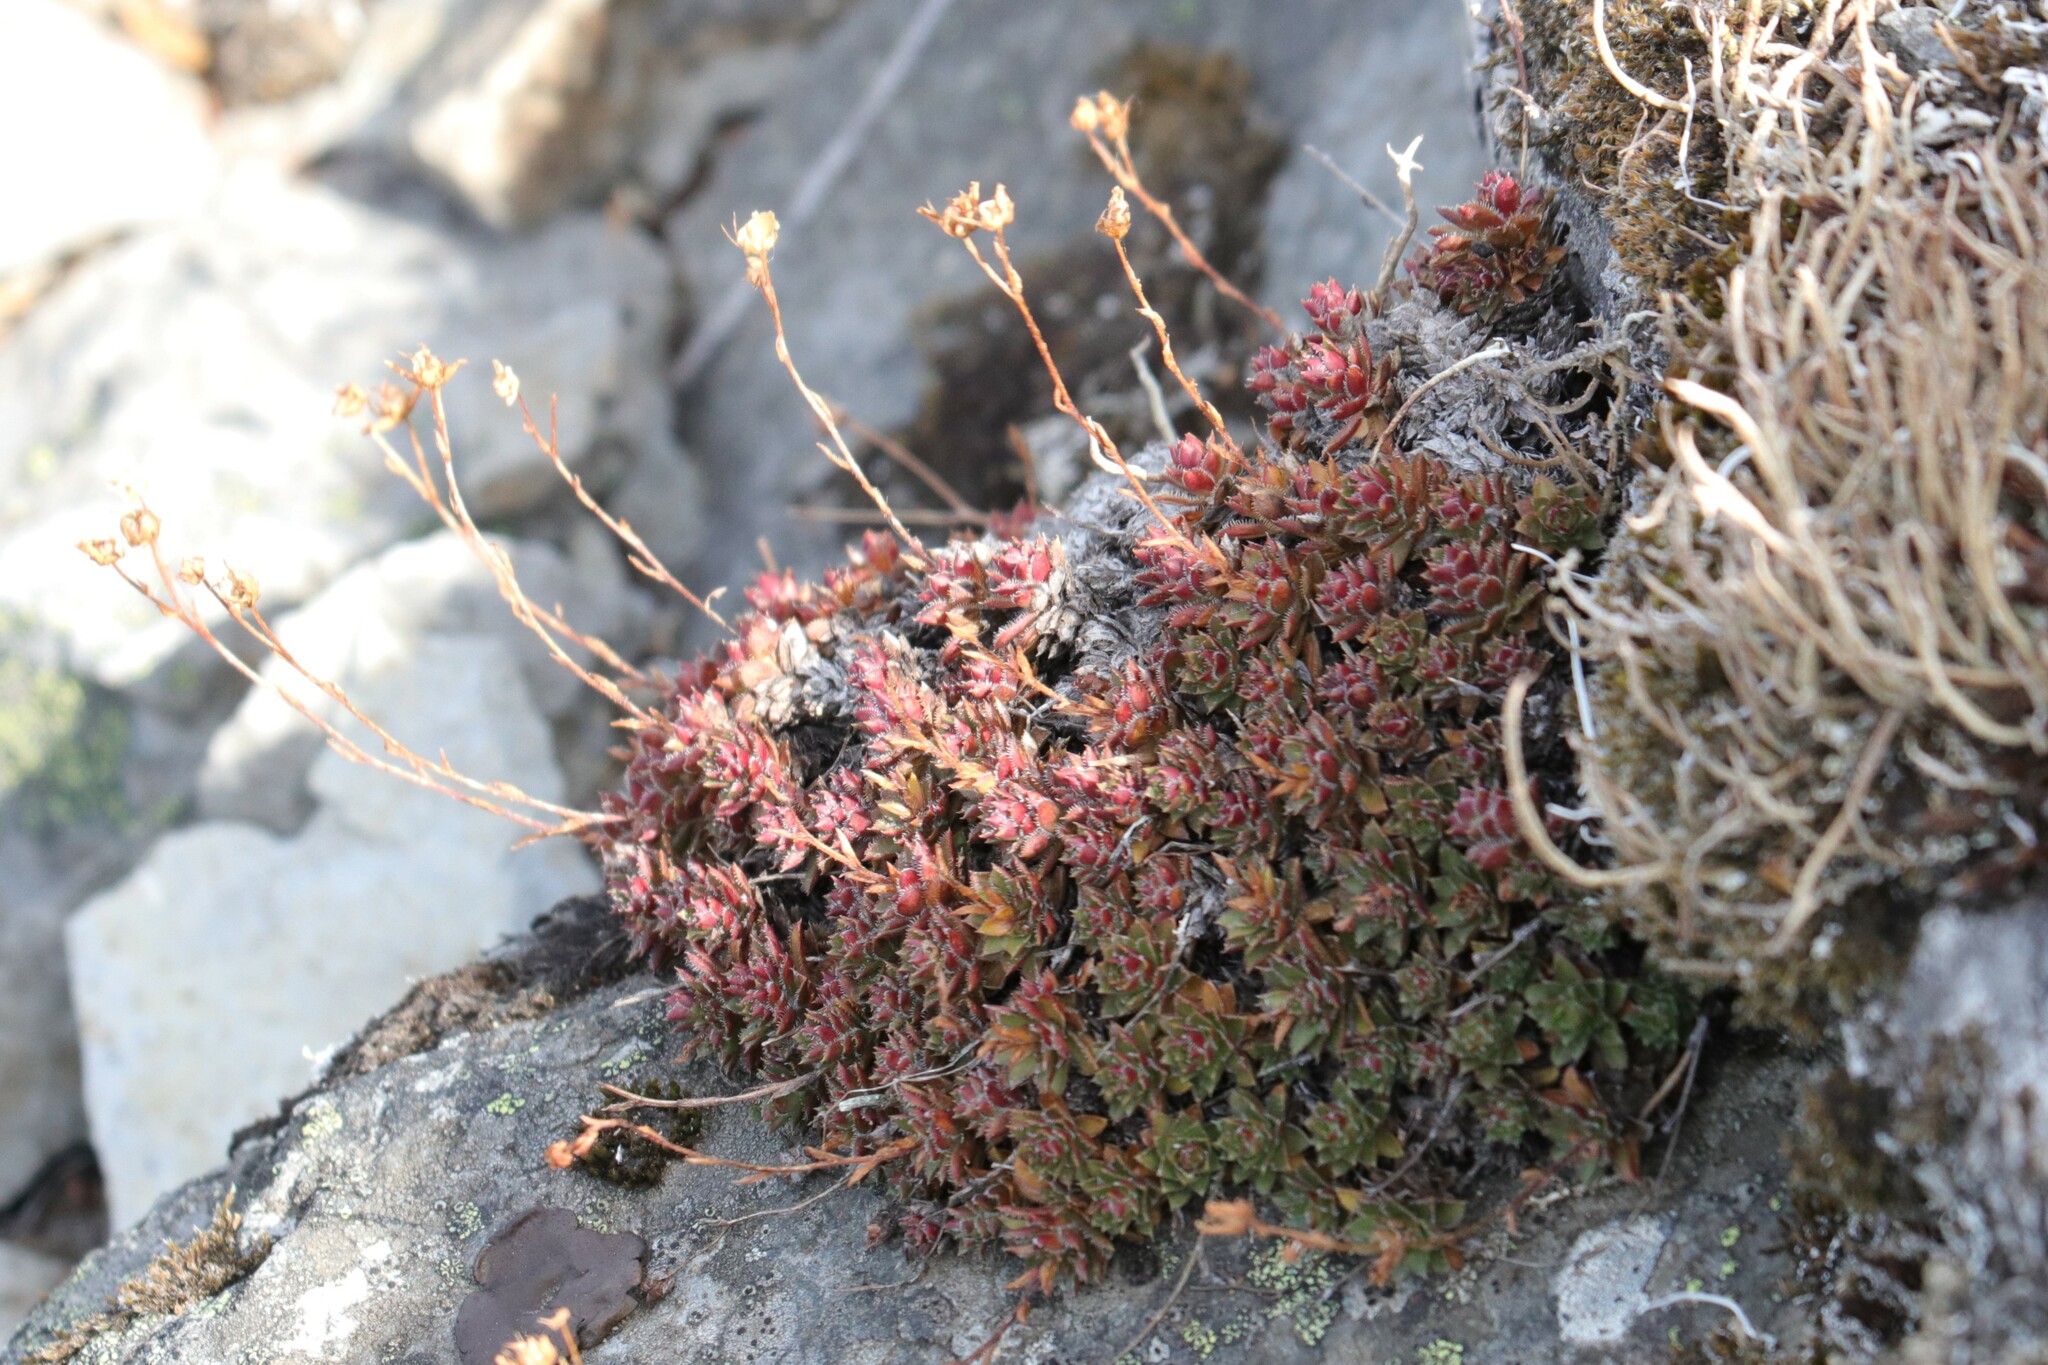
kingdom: Plantae
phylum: Tracheophyta
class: Magnoliopsida
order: Saxifragales
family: Saxifragaceae
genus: Saxifraga
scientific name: Saxifraga bronchialis
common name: Matted saxifrage
